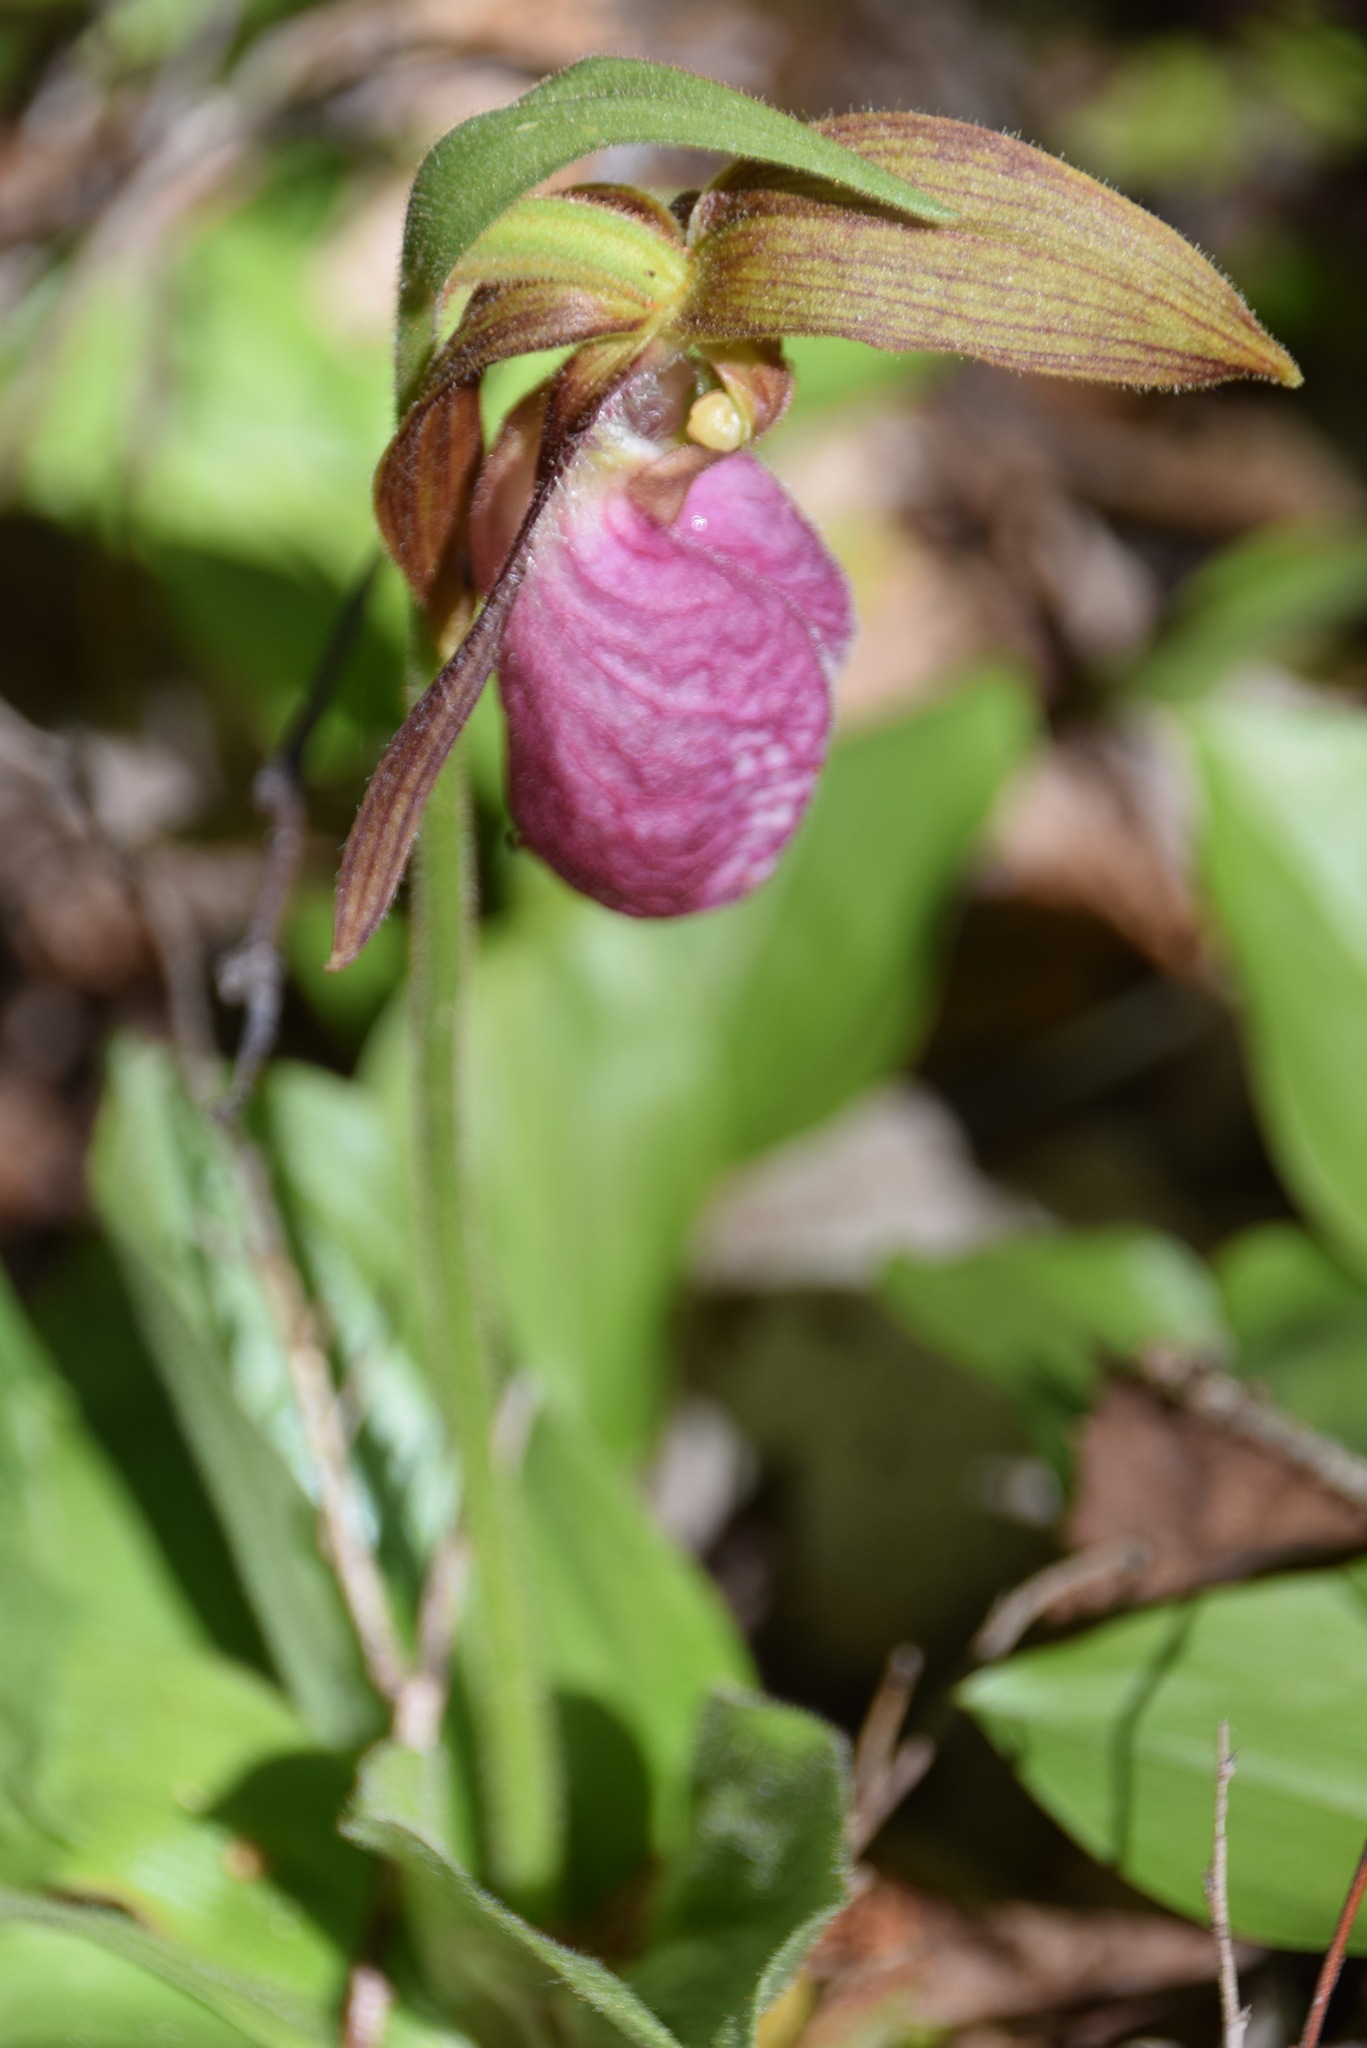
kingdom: Plantae
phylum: Tracheophyta
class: Liliopsida
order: Asparagales
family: Orchidaceae
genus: Cypripedium
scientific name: Cypripedium acaule
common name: Pink lady's-slipper
